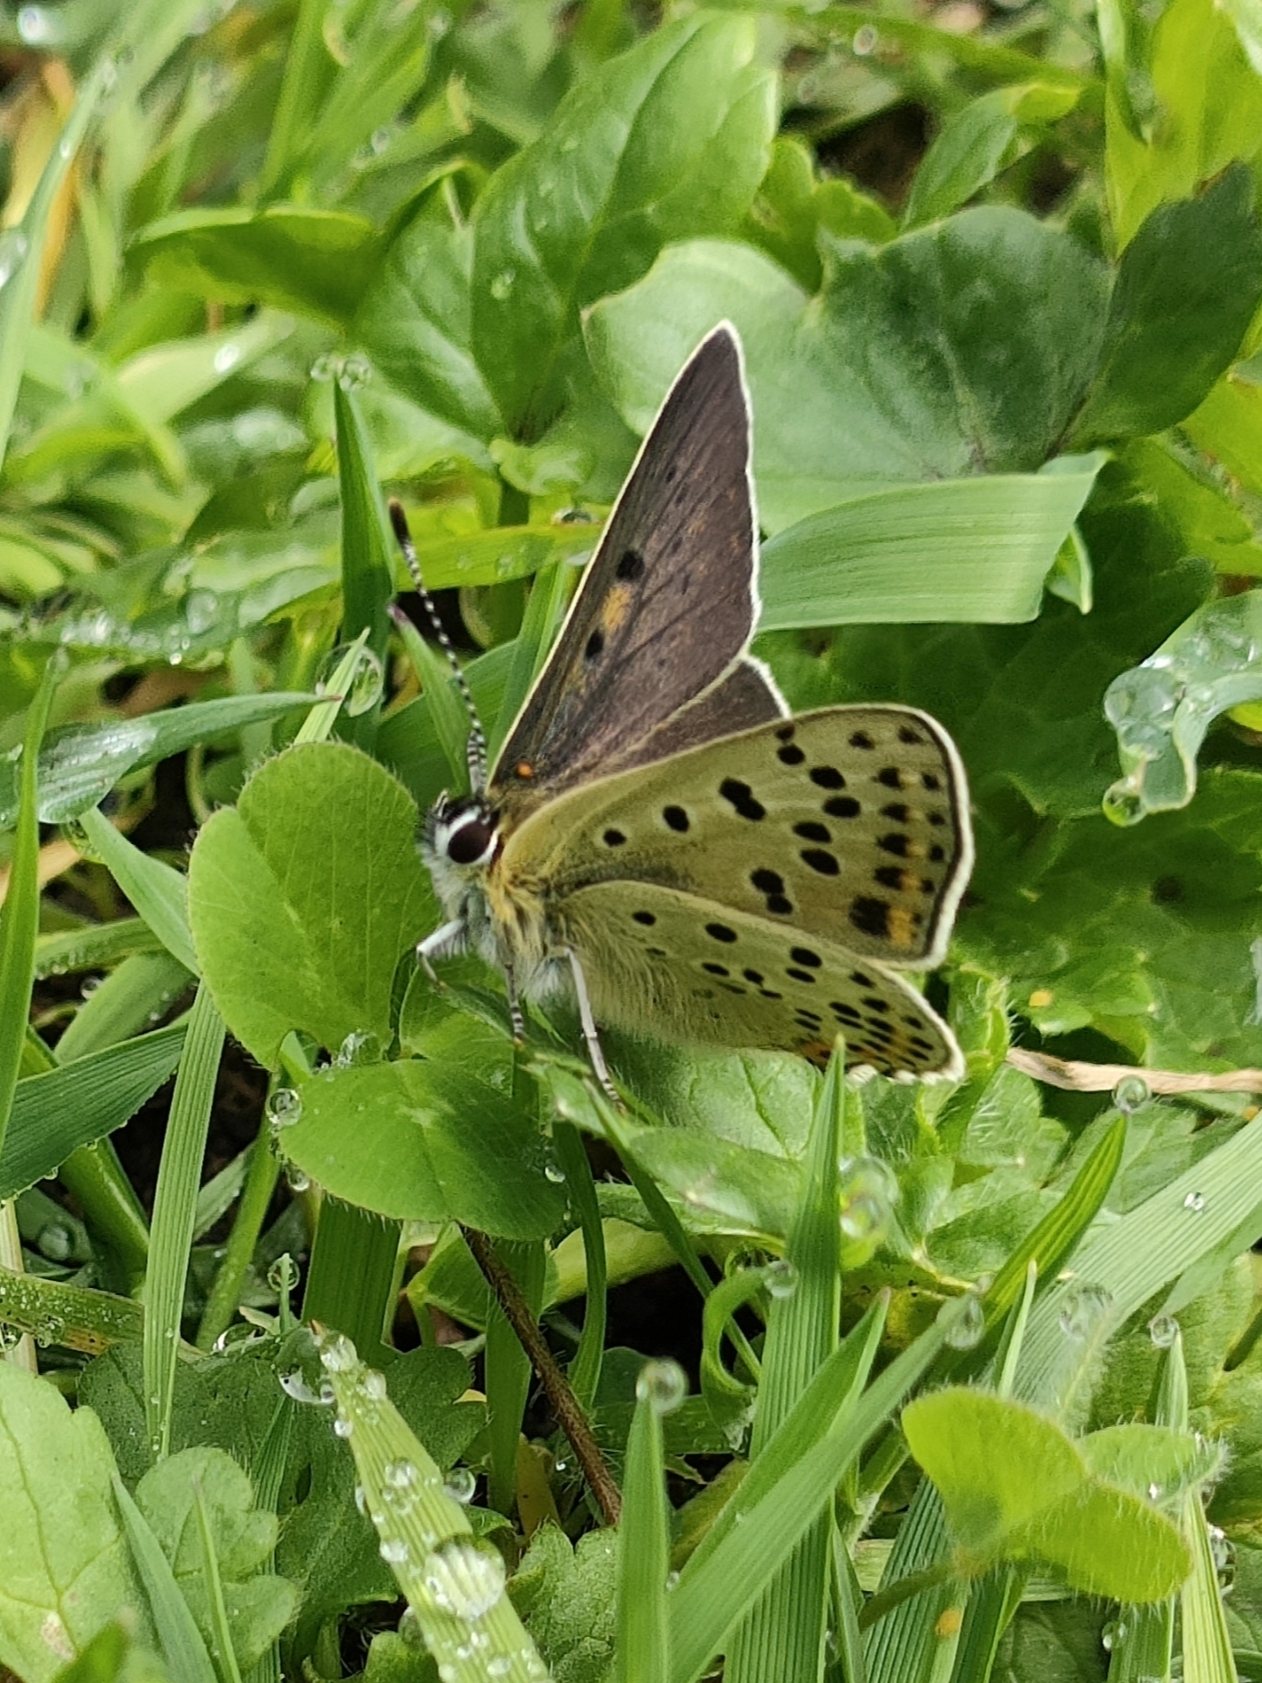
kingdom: Animalia
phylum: Arthropoda
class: Insecta
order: Lepidoptera
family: Lycaenidae
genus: Loweia
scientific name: Loweia tityrus
